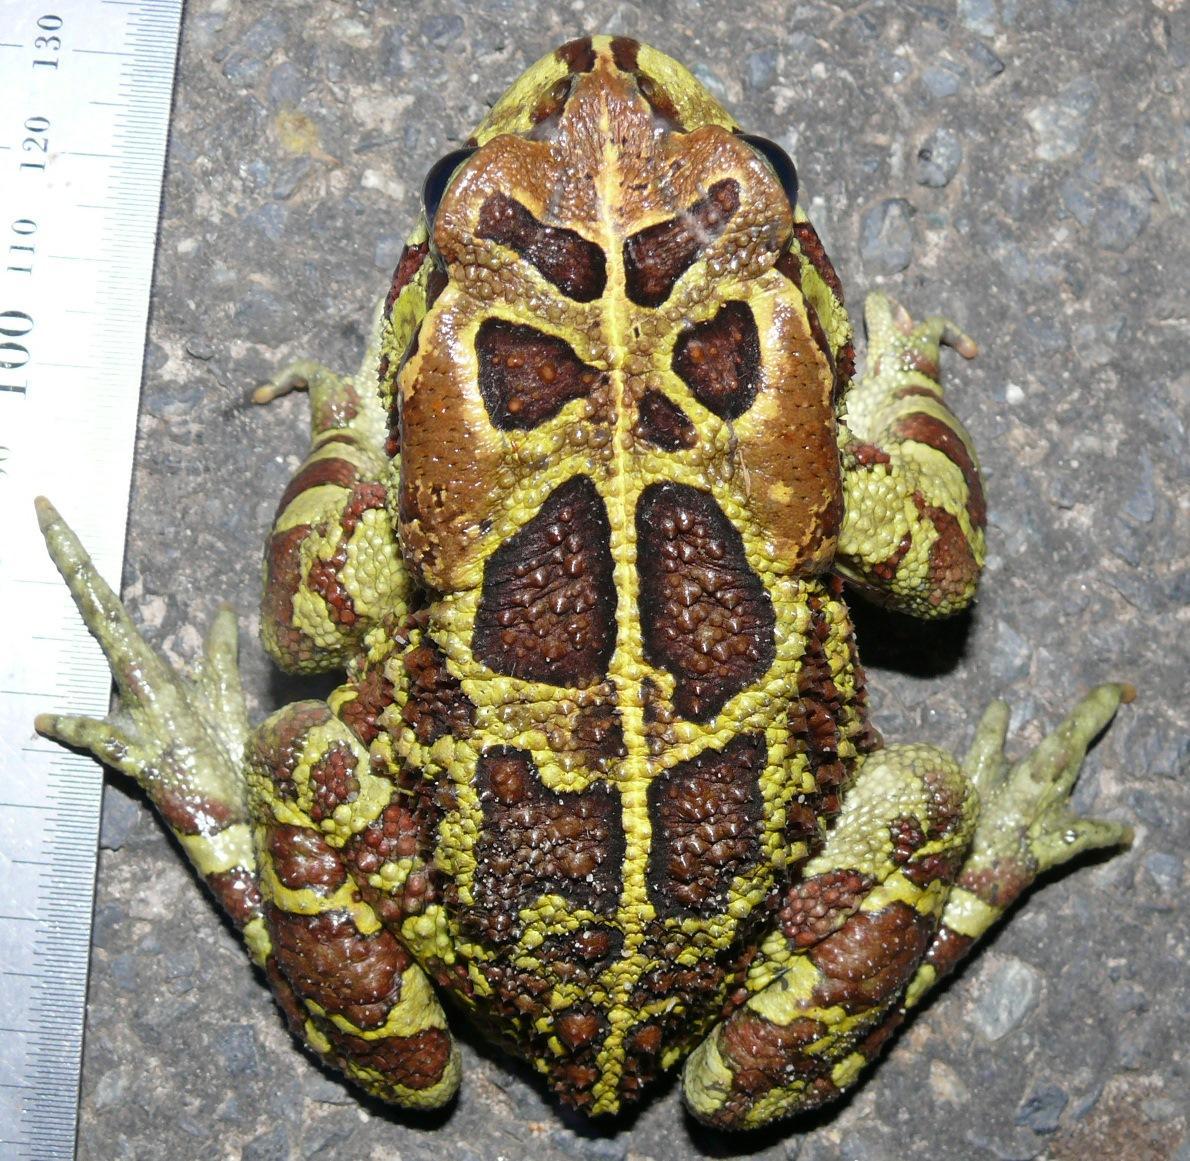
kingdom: Animalia
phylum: Chordata
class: Amphibia
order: Anura
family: Bufonidae
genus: Sclerophrys
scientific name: Sclerophrys pantherina
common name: Panther toad
